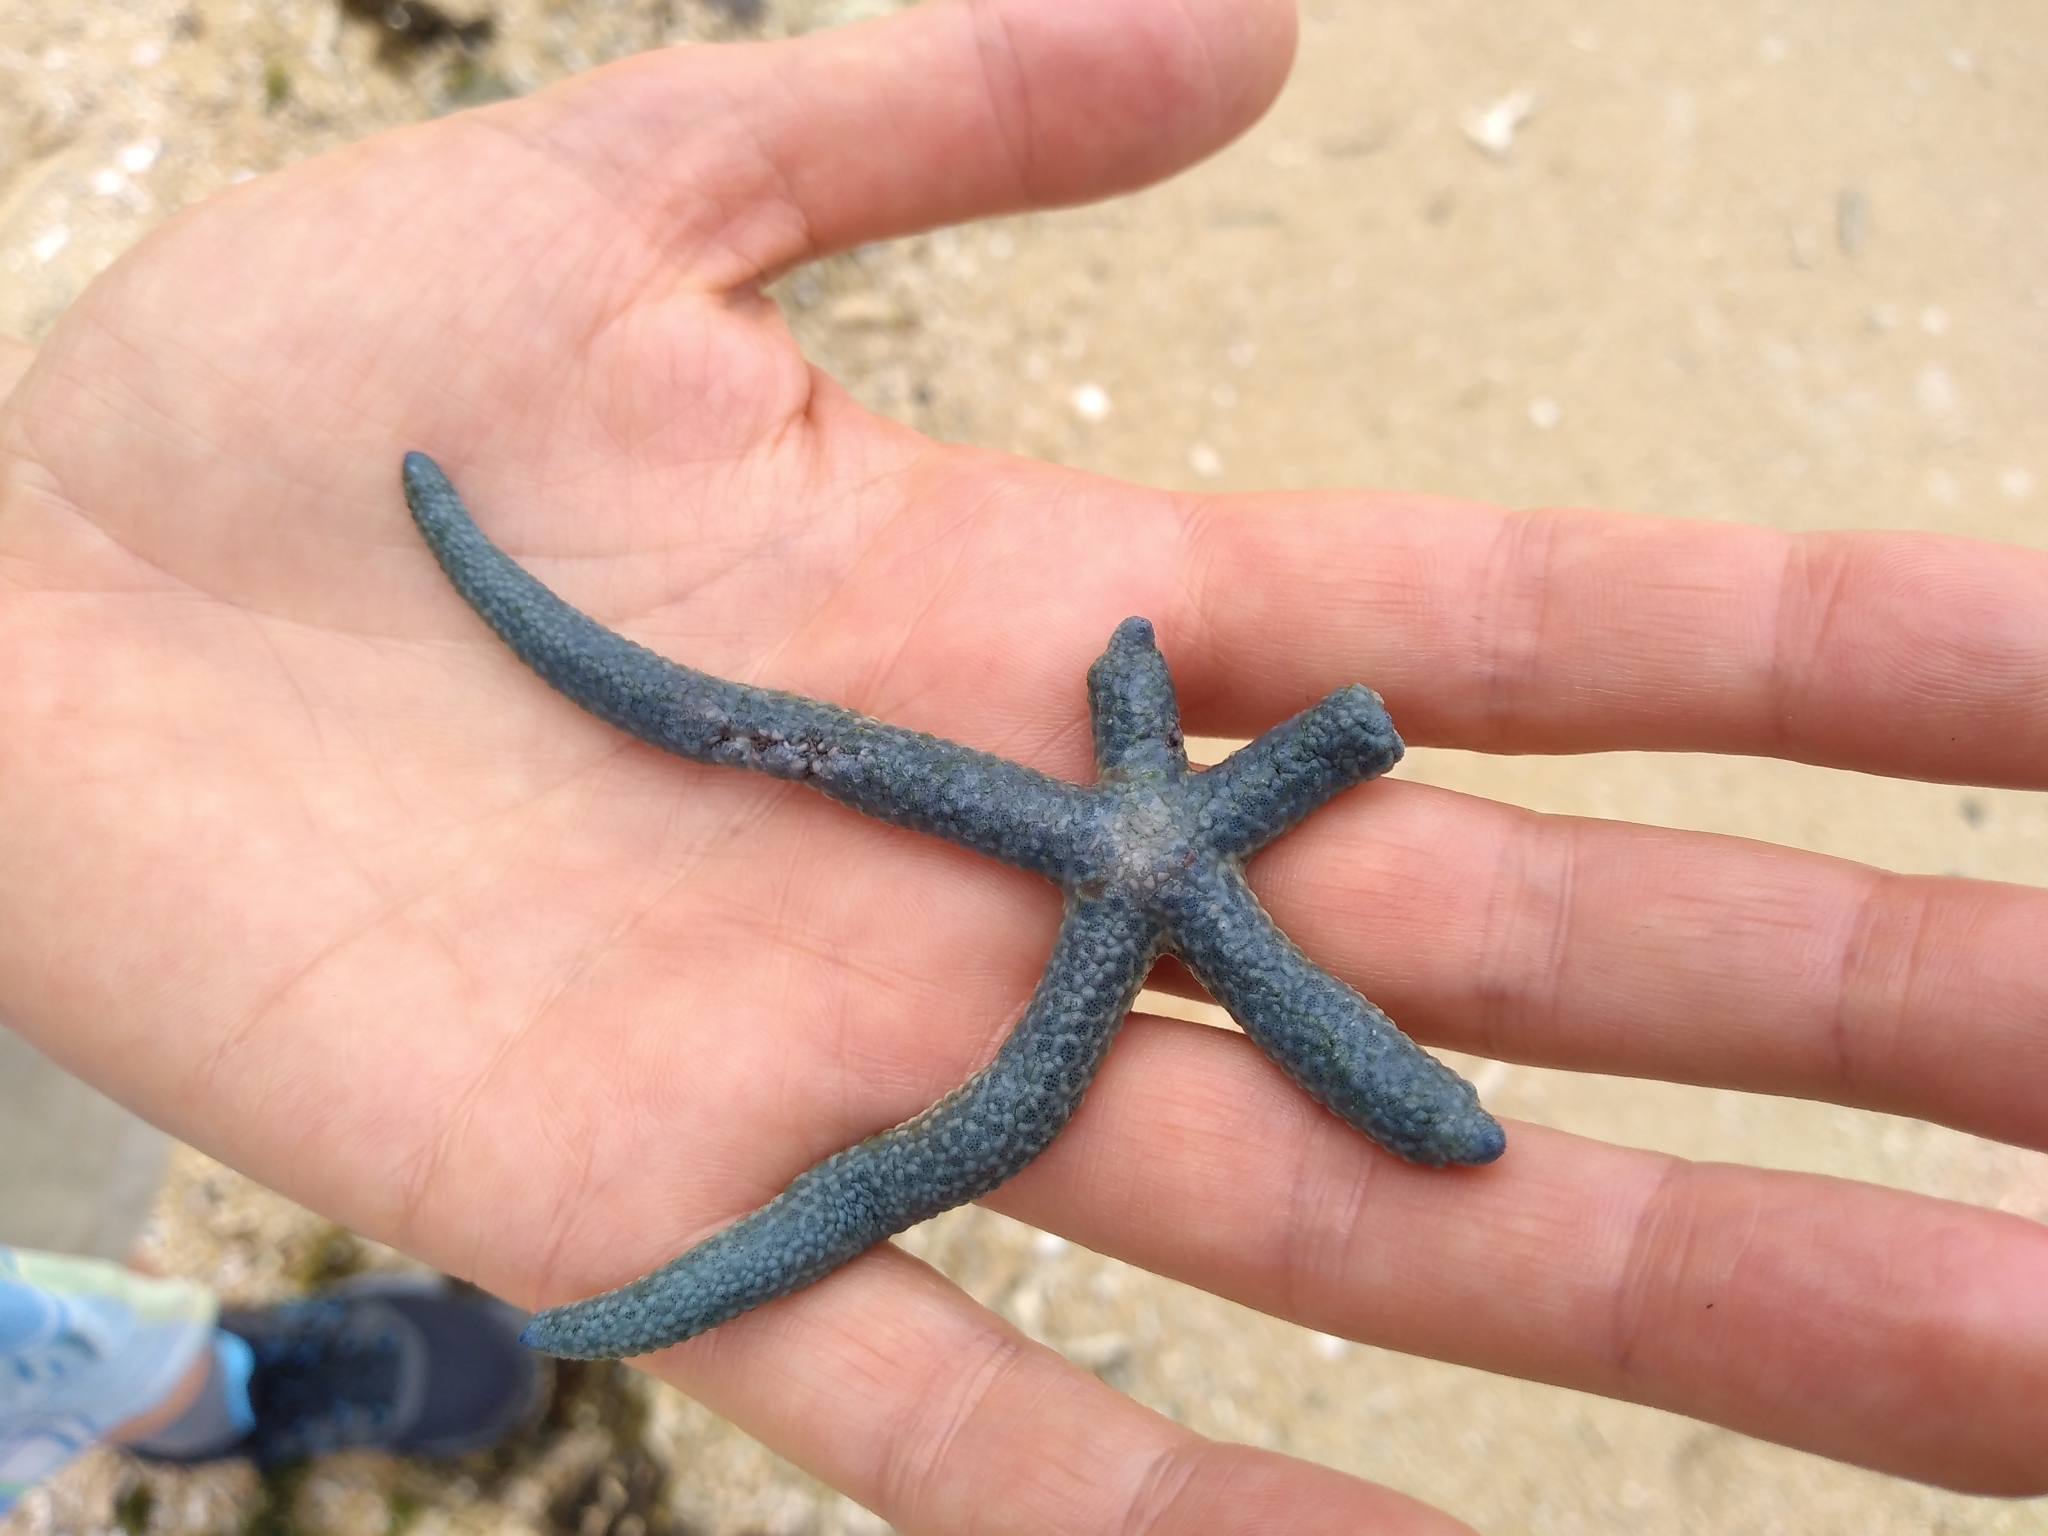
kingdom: Animalia
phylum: Echinodermata
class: Asteroidea
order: Valvatida
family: Ophidiasteridae
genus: Linckia
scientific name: Linckia laevigata
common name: Azure sea star
